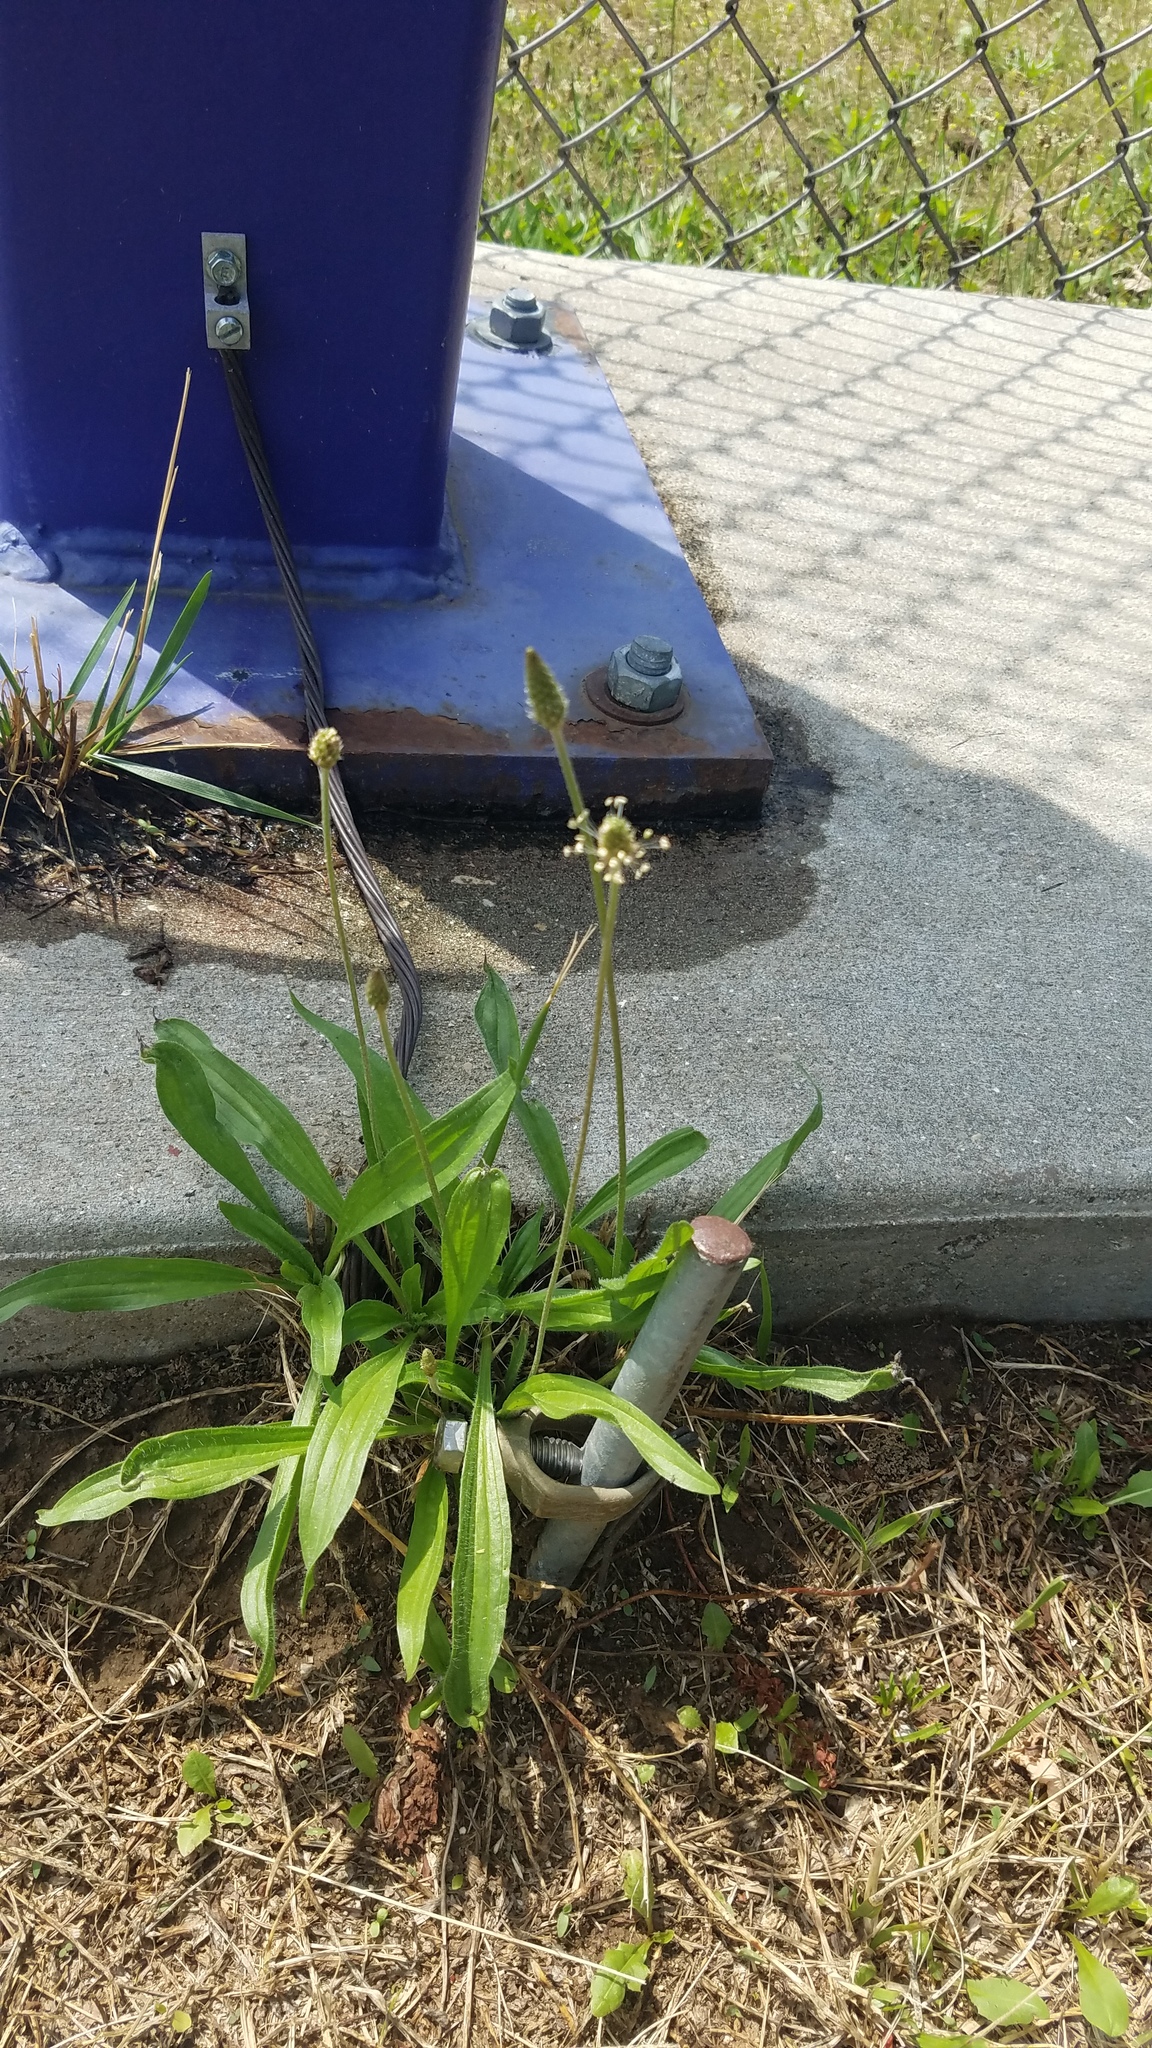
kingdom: Plantae
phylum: Tracheophyta
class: Magnoliopsida
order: Lamiales
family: Plantaginaceae
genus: Plantago
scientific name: Plantago lanceolata
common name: Ribwort plantain
